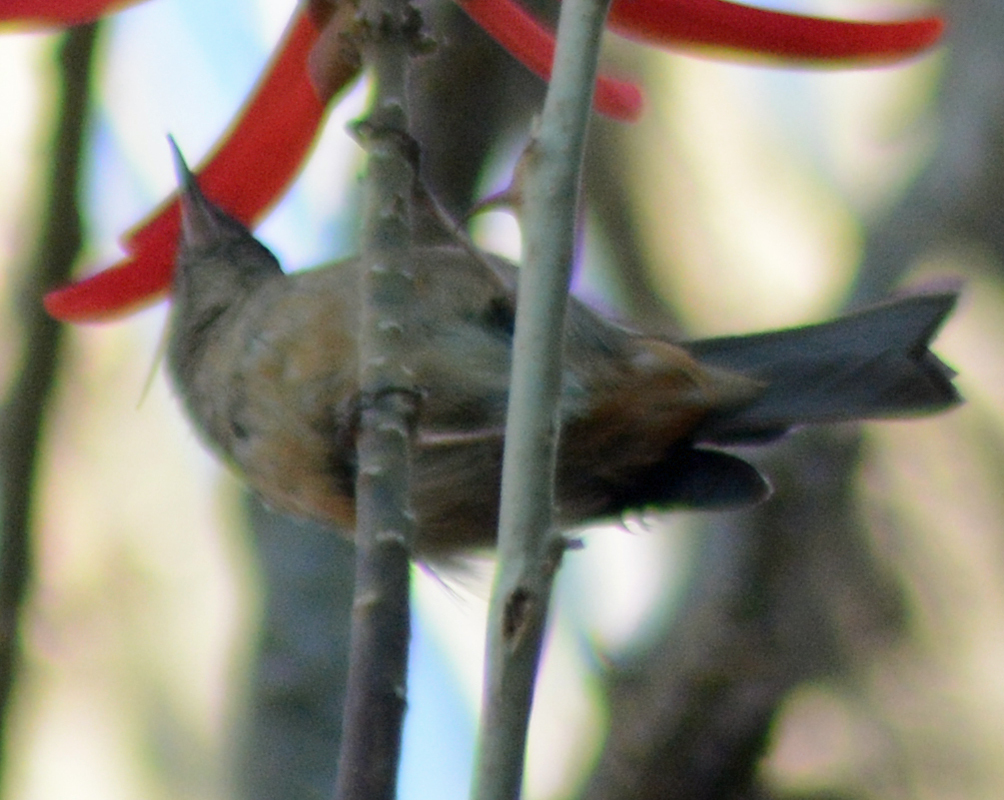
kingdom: Animalia
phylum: Chordata
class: Aves
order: Passeriformes
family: Thraupidae
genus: Diglossa
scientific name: Diglossa baritula
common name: Cinnamon-bellied flowerpiercer
